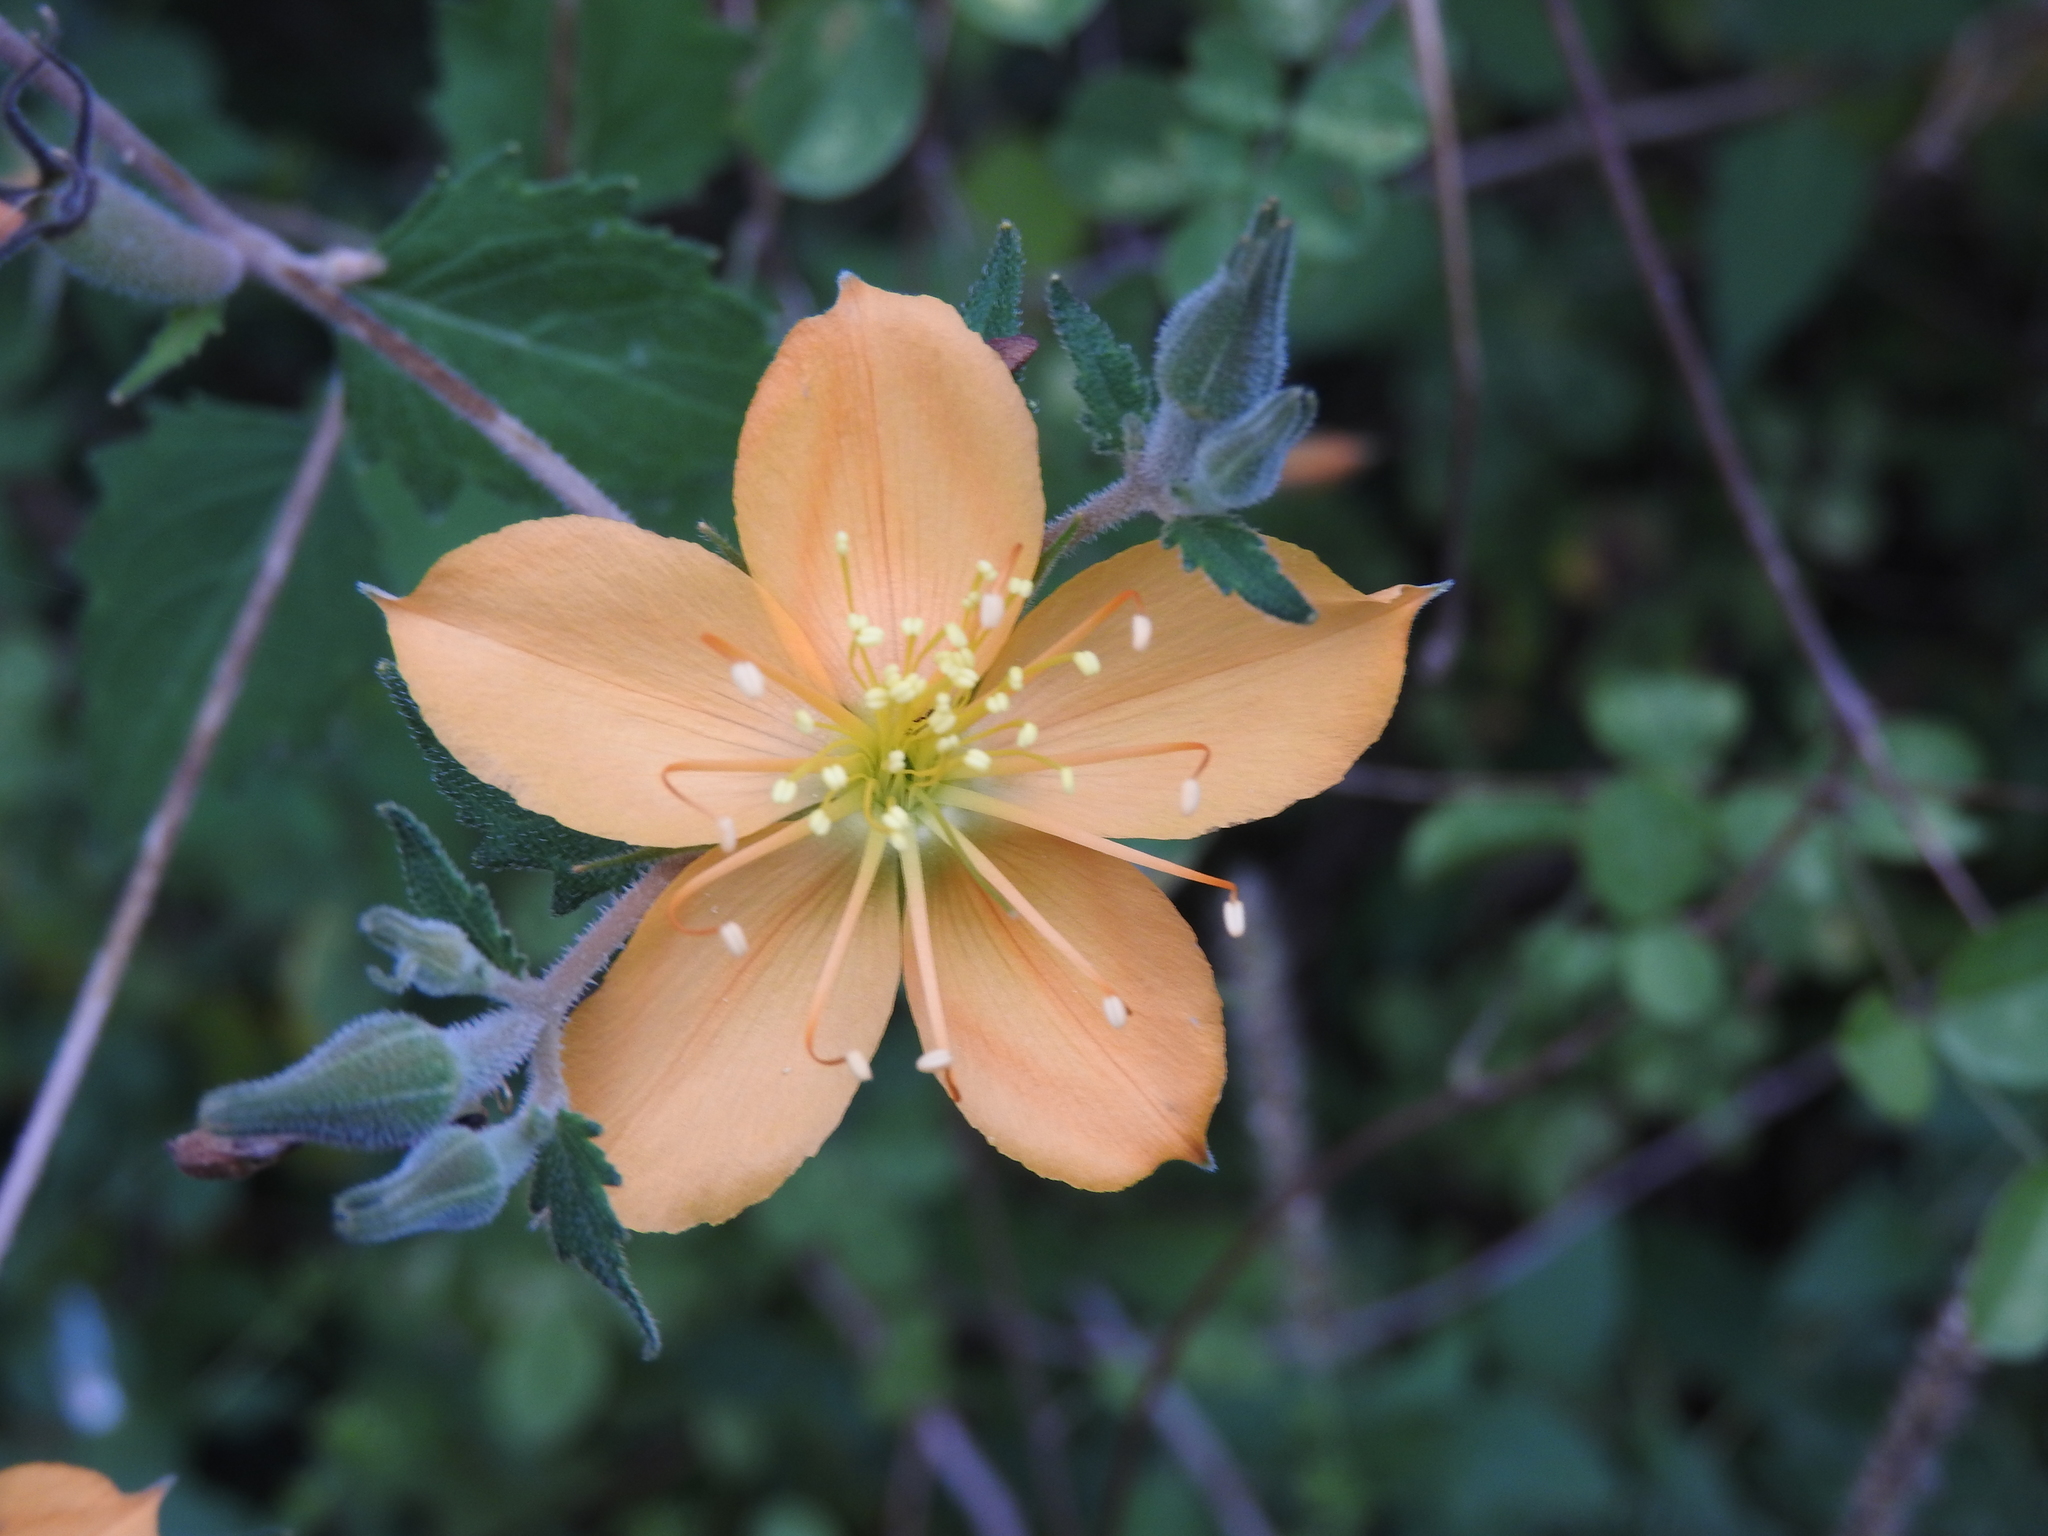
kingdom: Plantae
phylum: Tracheophyta
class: Magnoliopsida
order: Cornales
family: Loasaceae
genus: Mentzelia
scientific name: Mentzelia hispida
